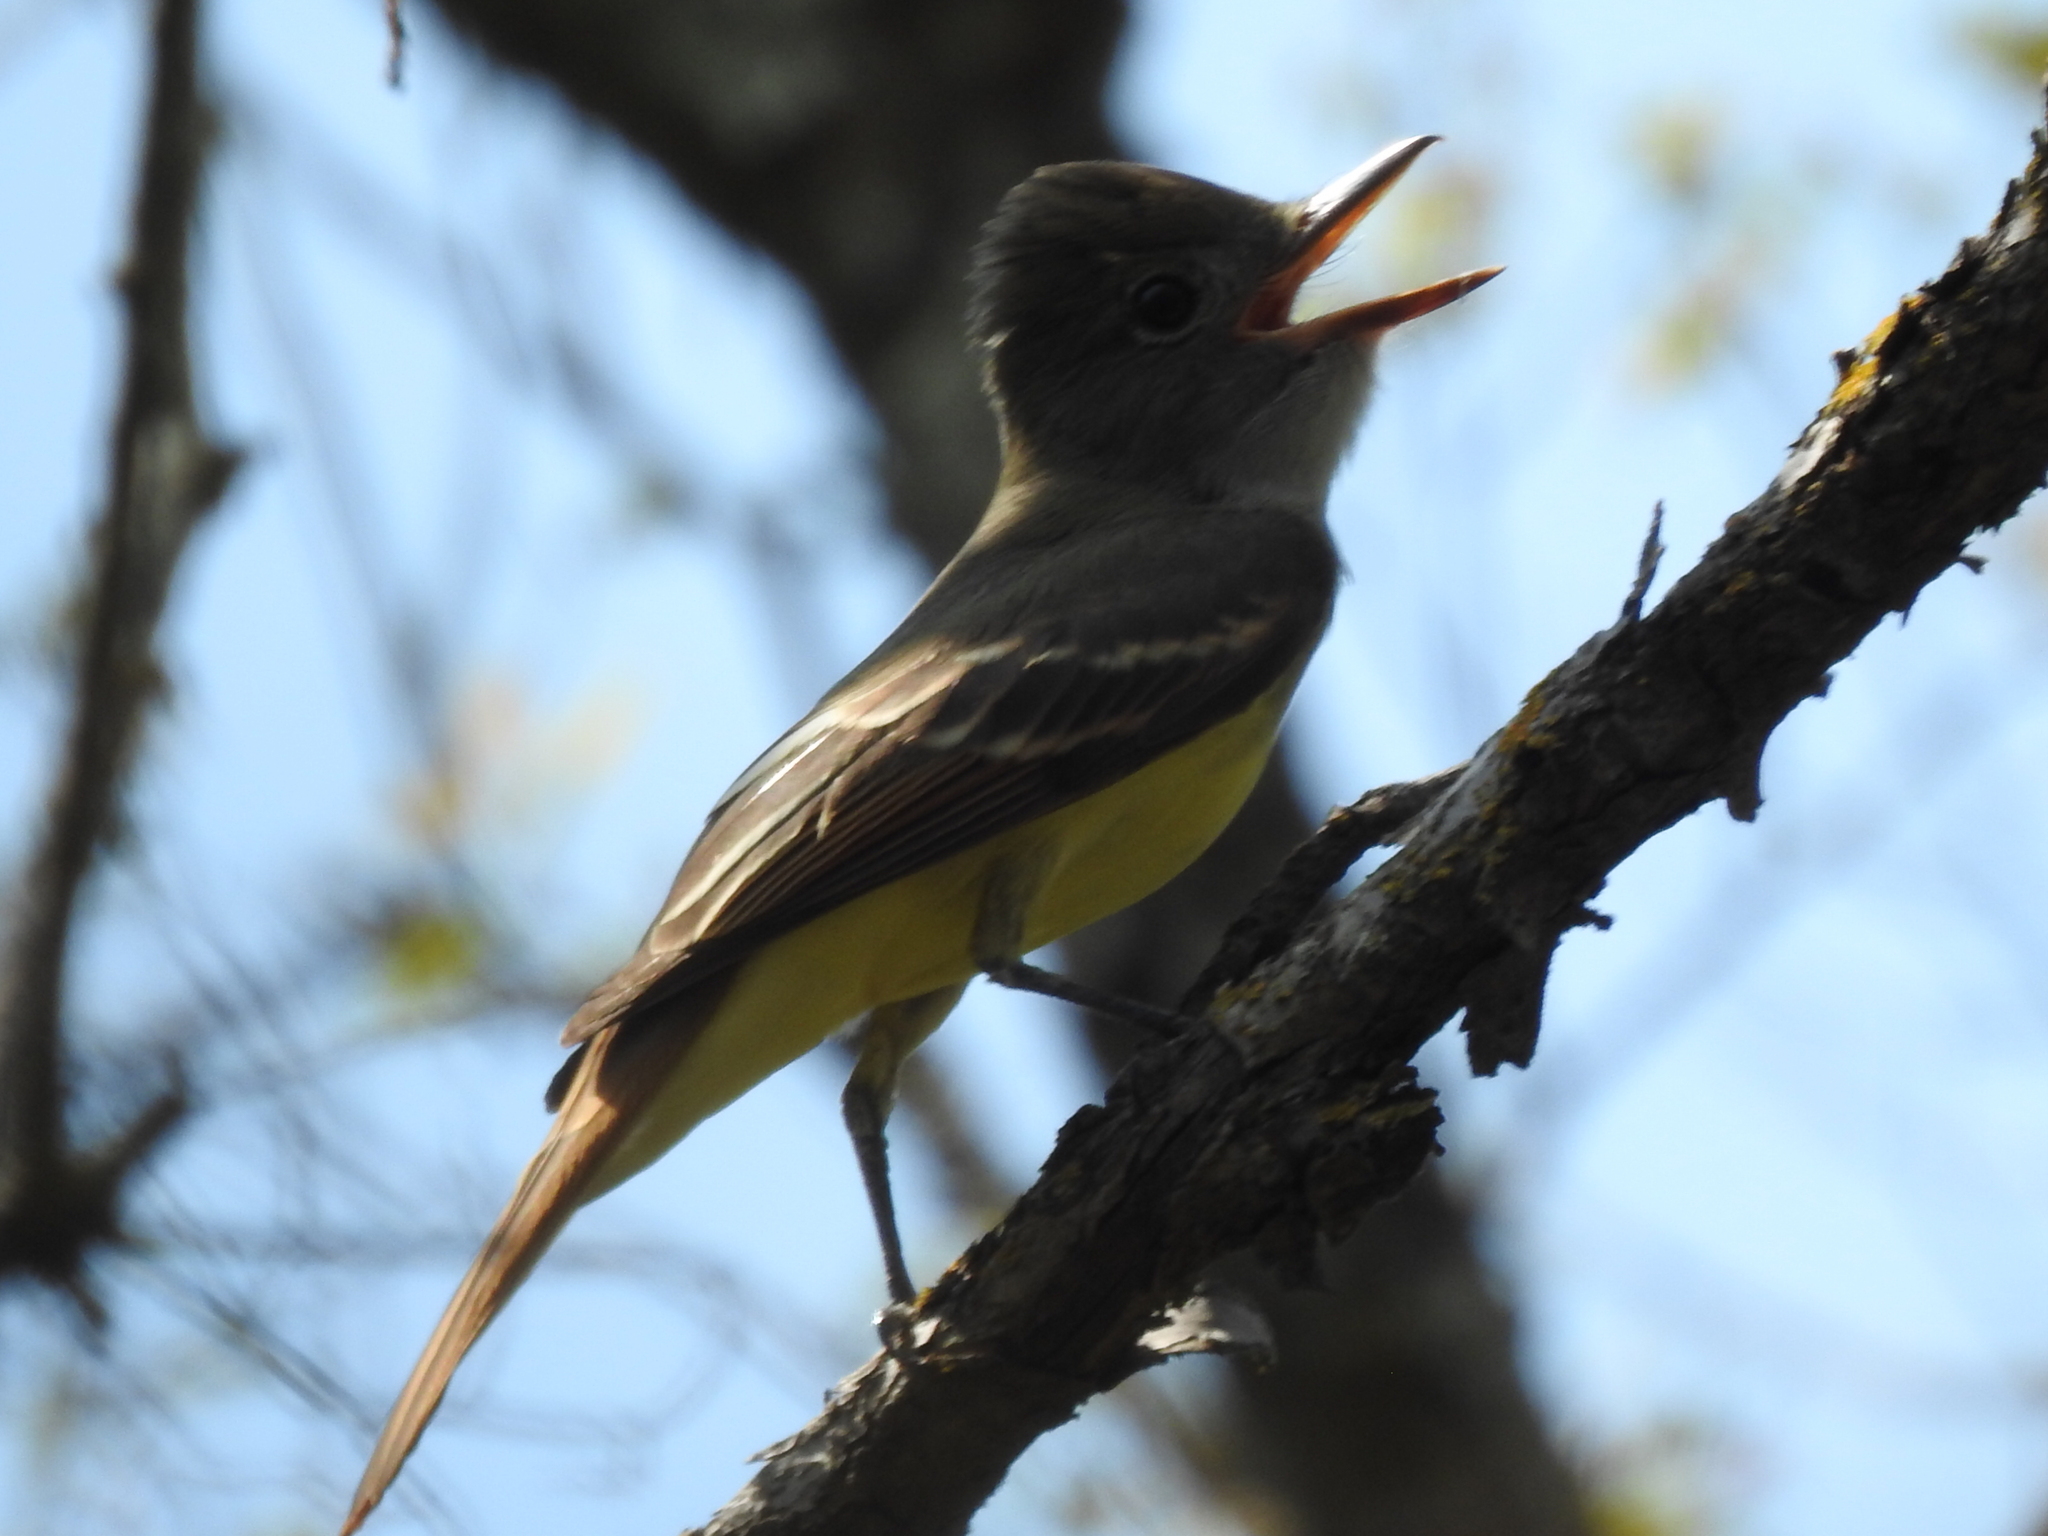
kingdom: Animalia
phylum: Chordata
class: Aves
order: Passeriformes
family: Tyrannidae
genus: Myiarchus
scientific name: Myiarchus crinitus
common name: Great crested flycatcher
